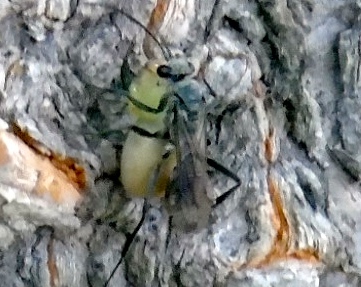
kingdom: Animalia
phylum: Arthropoda
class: Insecta
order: Hymenoptera
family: Pompilidae
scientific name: Pompilidae
